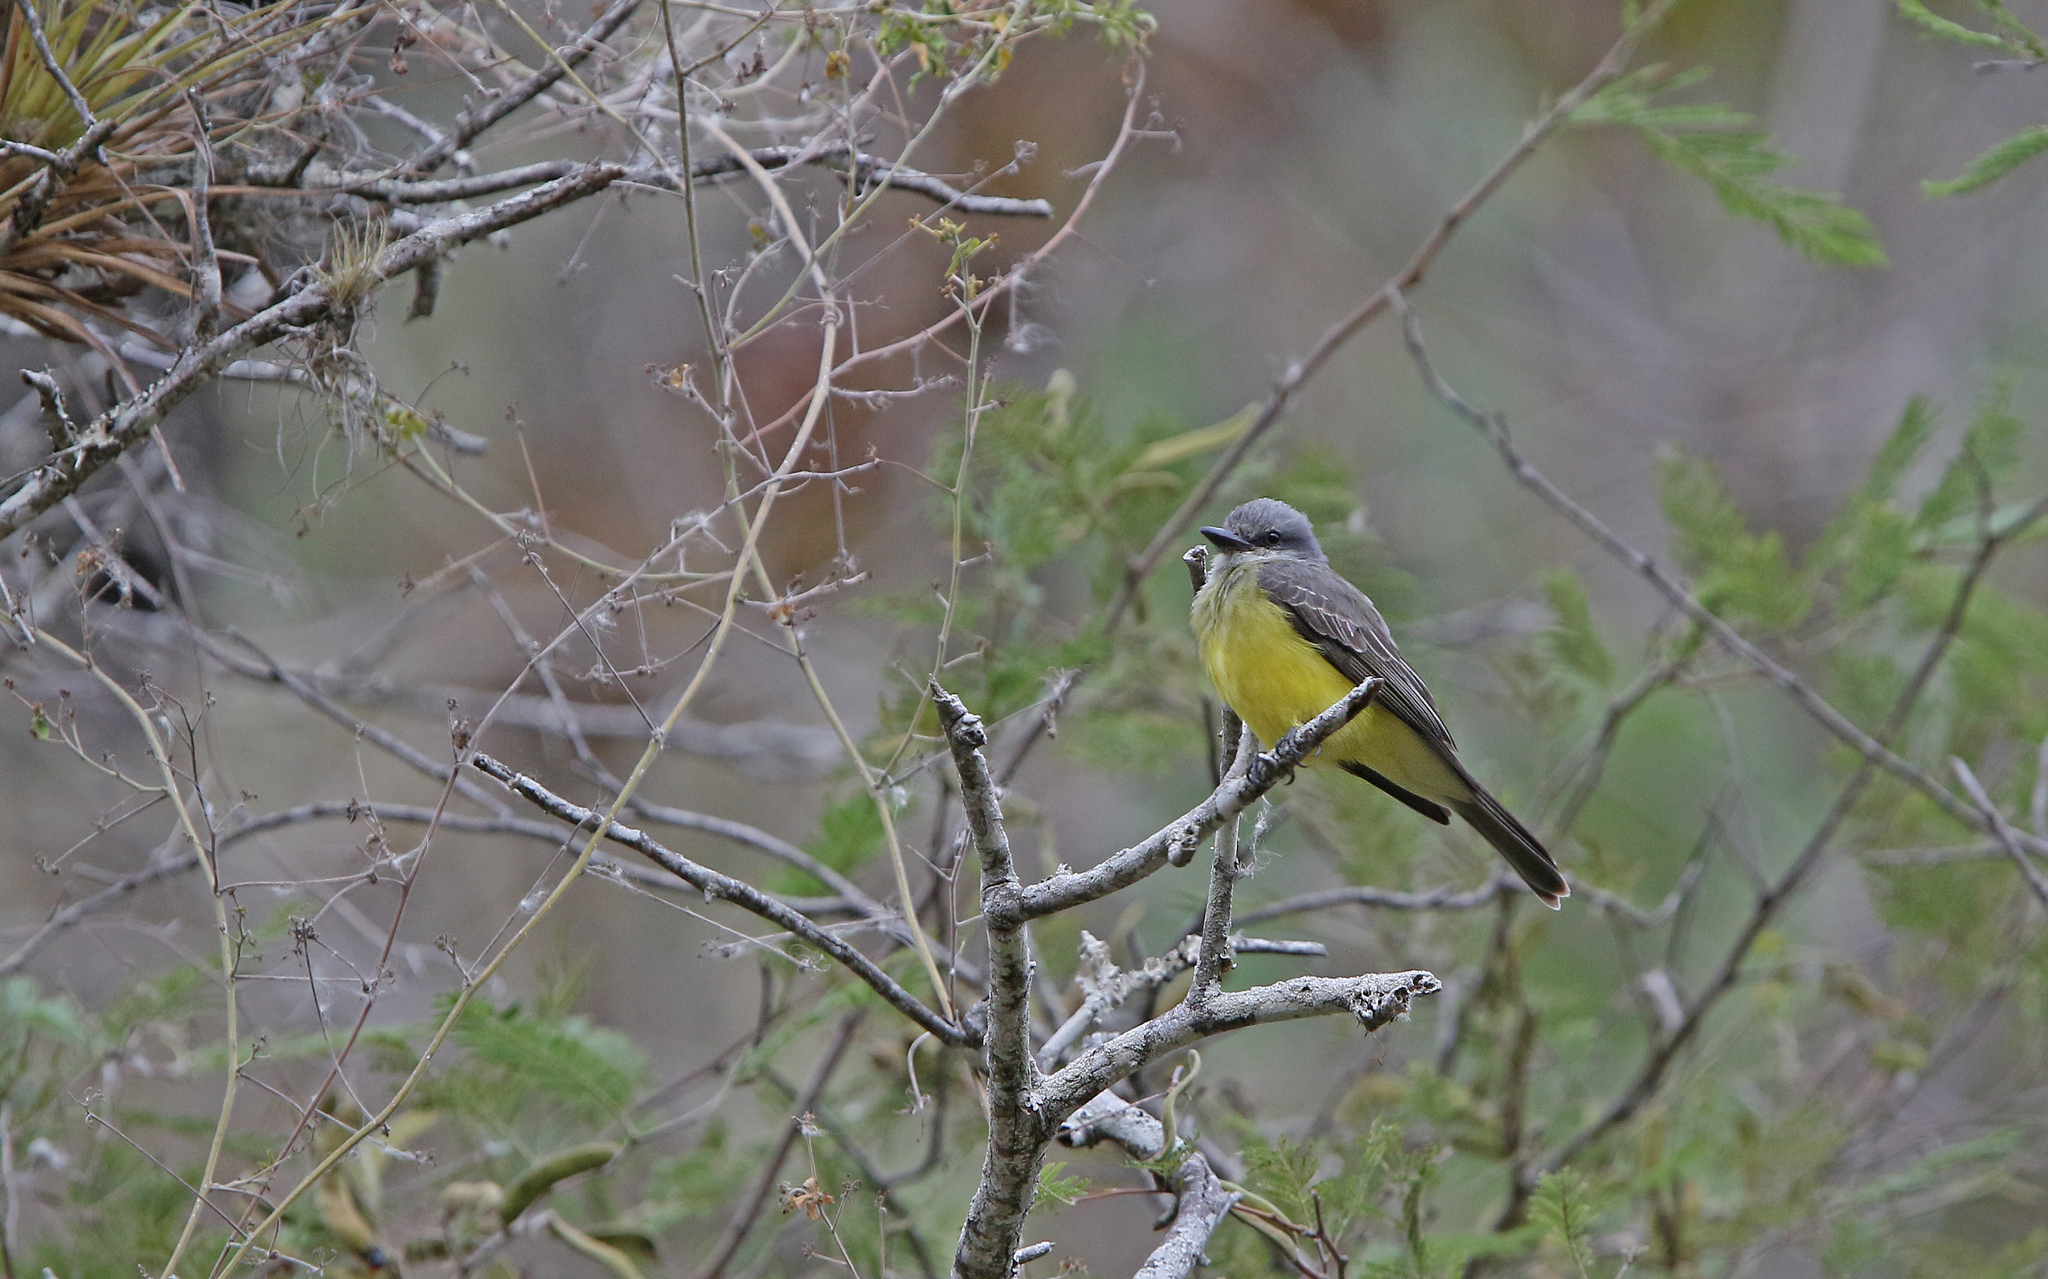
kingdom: Animalia
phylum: Chordata
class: Aves
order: Passeriformes
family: Tyrannidae
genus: Tyrannus
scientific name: Tyrannus melancholicus
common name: Tropical kingbird
